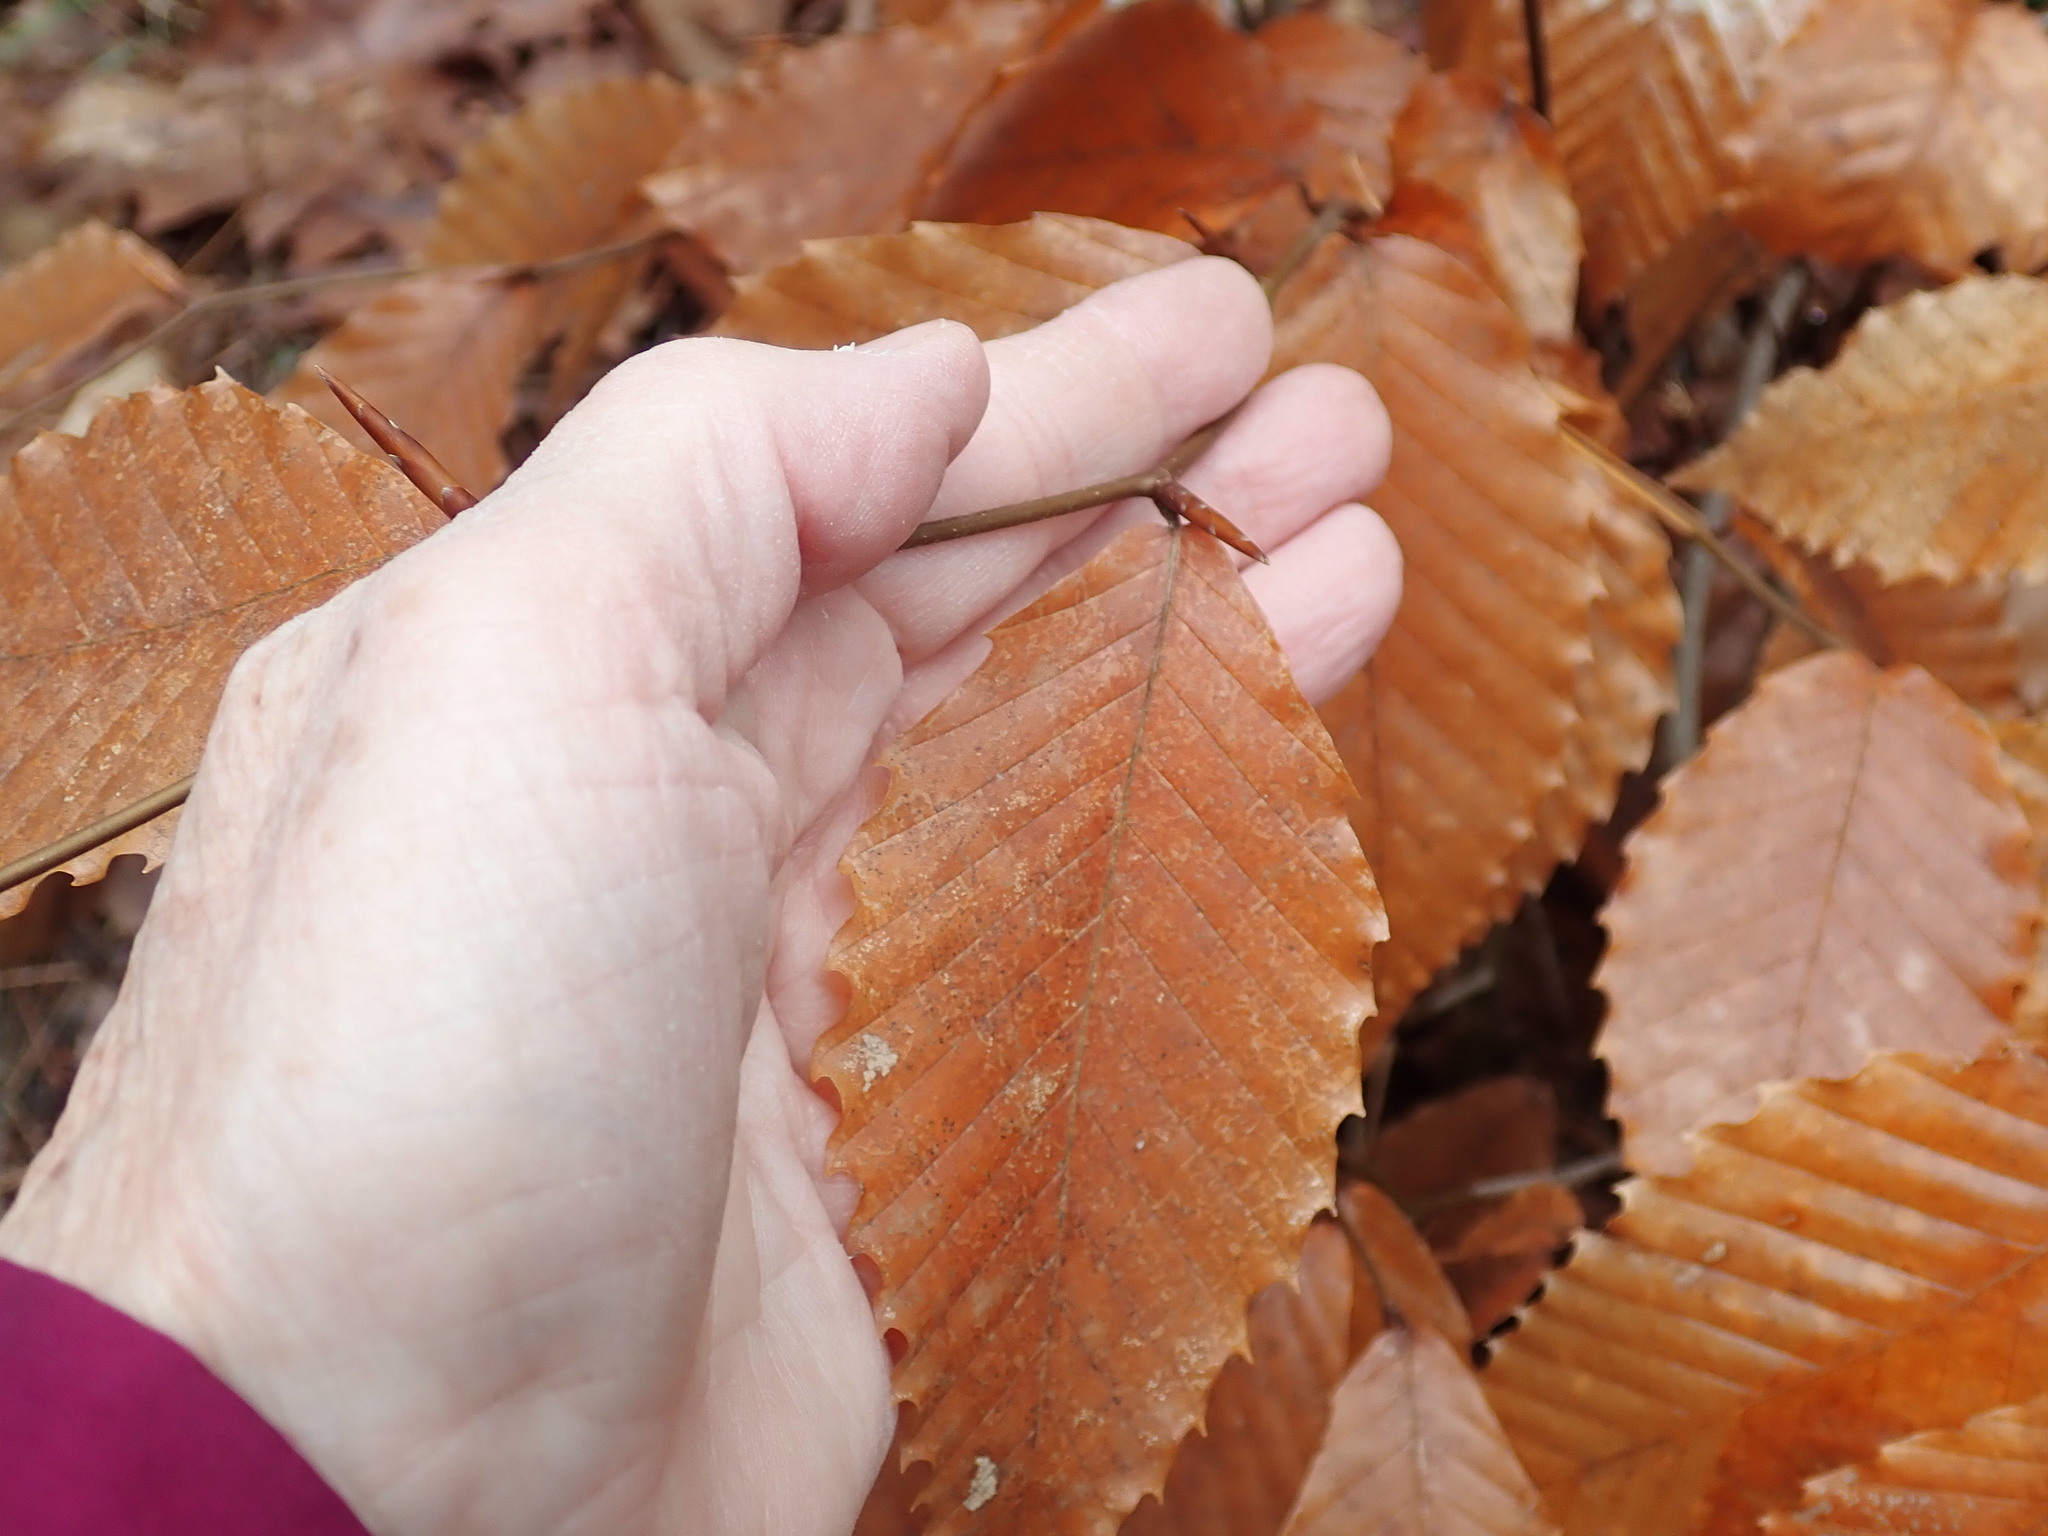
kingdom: Plantae
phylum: Tracheophyta
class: Magnoliopsida
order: Fagales
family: Fagaceae
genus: Fagus
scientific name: Fagus grandifolia
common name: American beech
